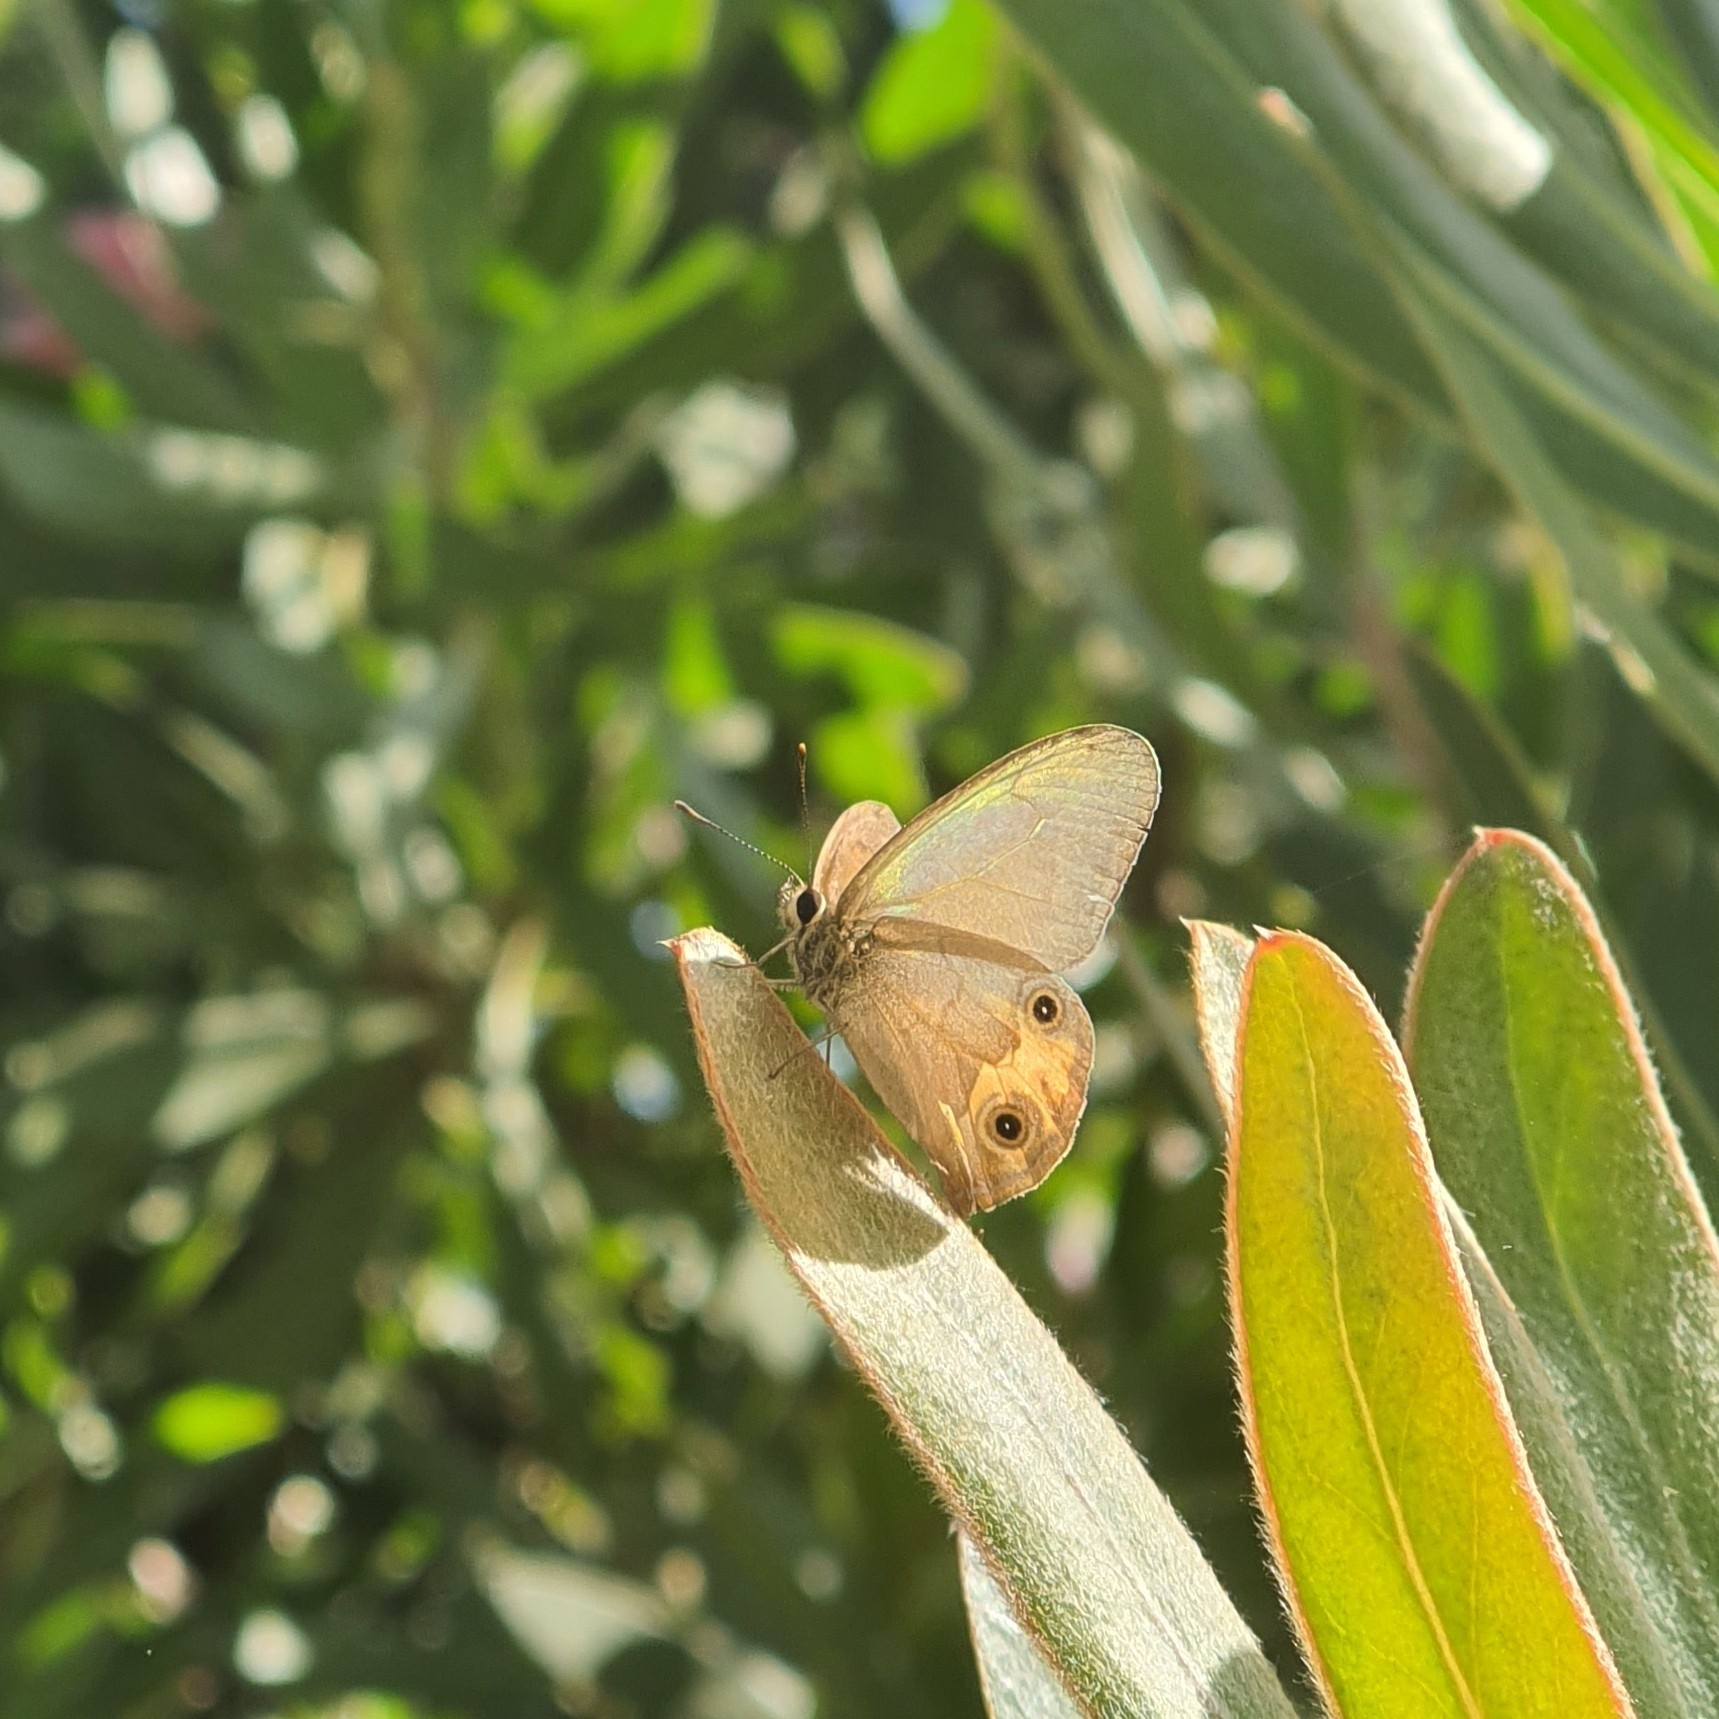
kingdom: Animalia
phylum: Arthropoda
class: Insecta
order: Lepidoptera
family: Nymphalidae
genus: Hypocysta
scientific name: Hypocysta metirius
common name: Brown ringlet
